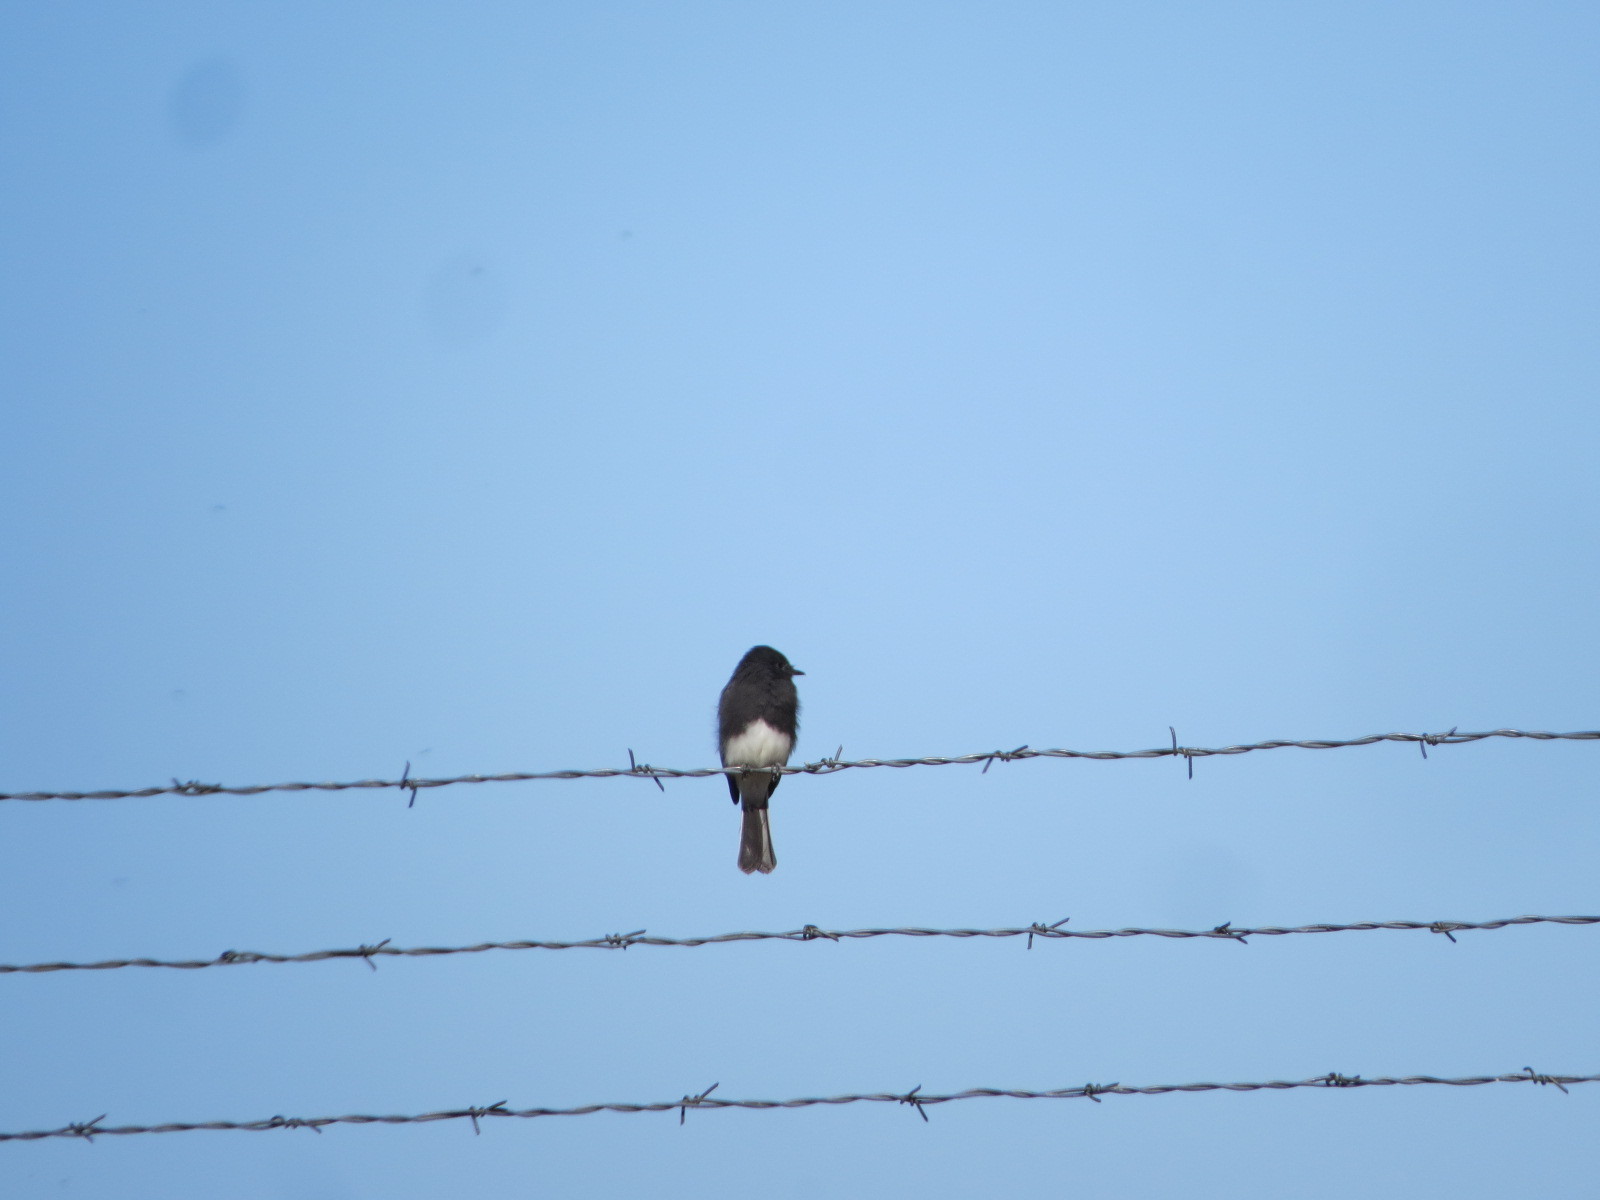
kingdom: Animalia
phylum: Chordata
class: Aves
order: Passeriformes
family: Tyrannidae
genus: Sayornis
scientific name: Sayornis nigricans
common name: Black phoebe
